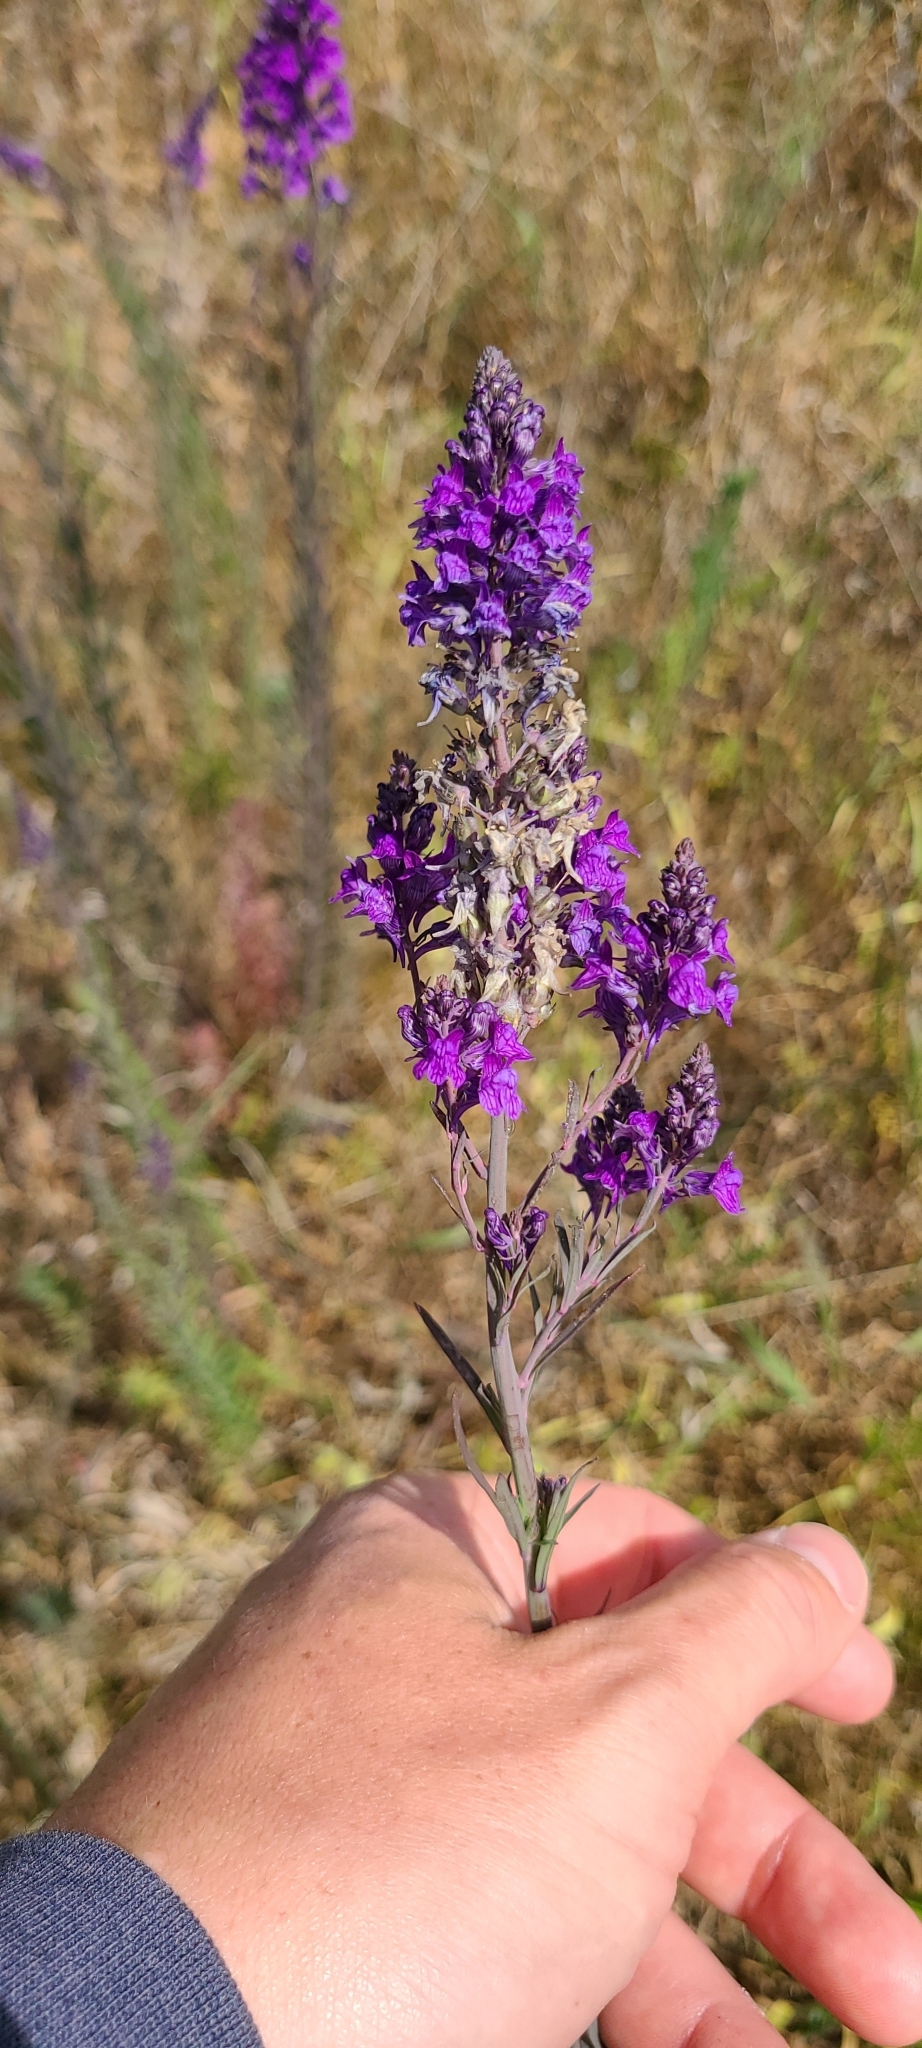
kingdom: Plantae
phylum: Tracheophyta
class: Magnoliopsida
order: Lamiales
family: Plantaginaceae
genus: Linaria
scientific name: Linaria purpurea
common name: Purple toadflax
